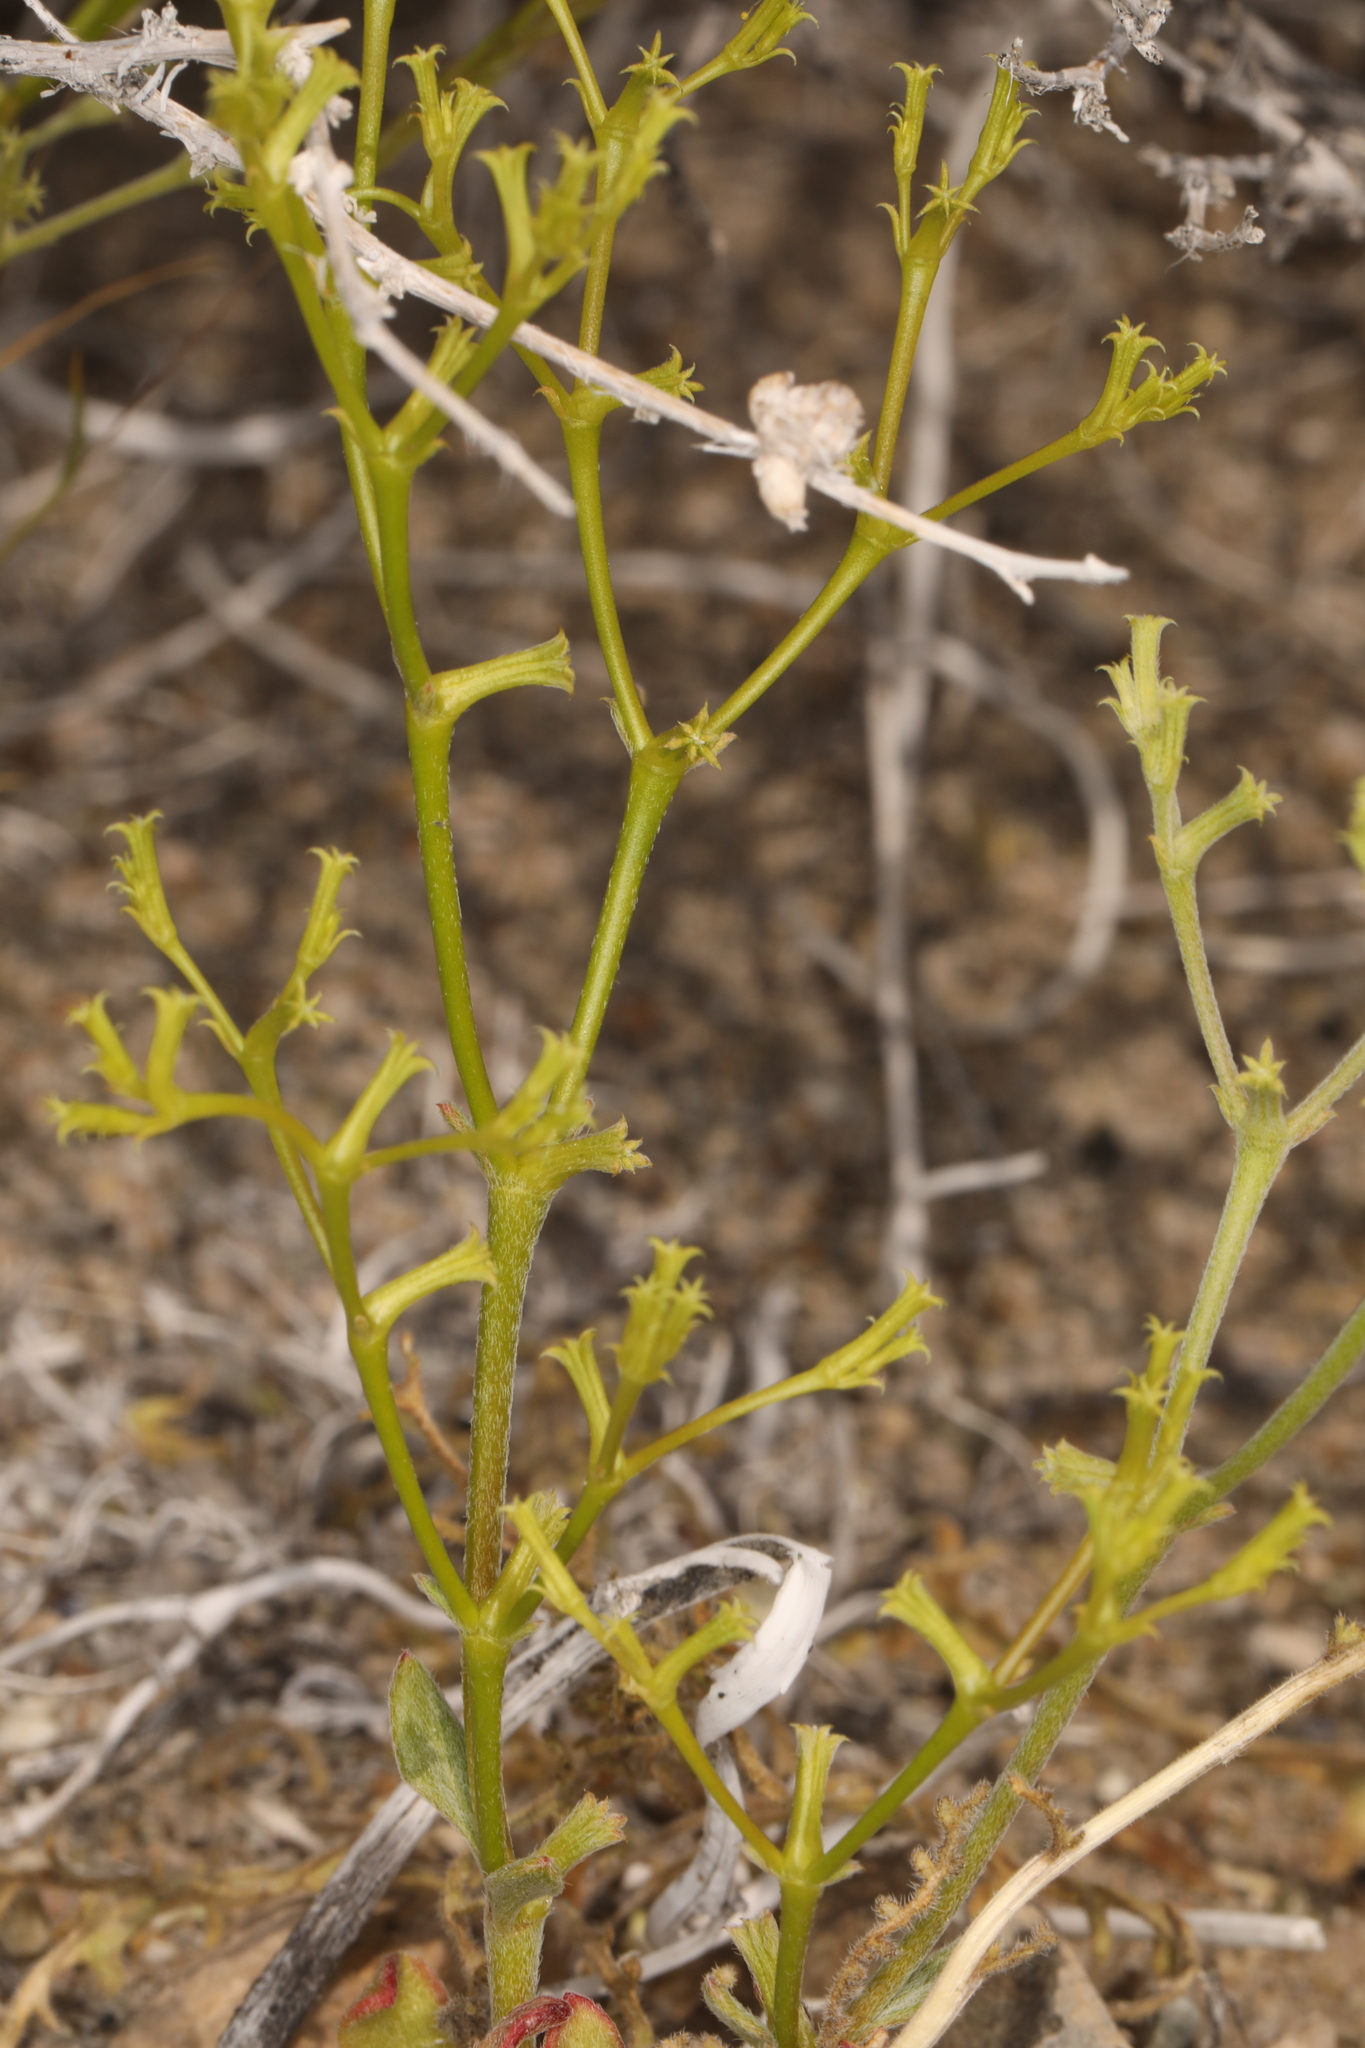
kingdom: Plantae
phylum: Tracheophyta
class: Magnoliopsida
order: Caryophyllales
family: Polygonaceae
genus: Chorizanthe
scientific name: Chorizanthe brevicornu
